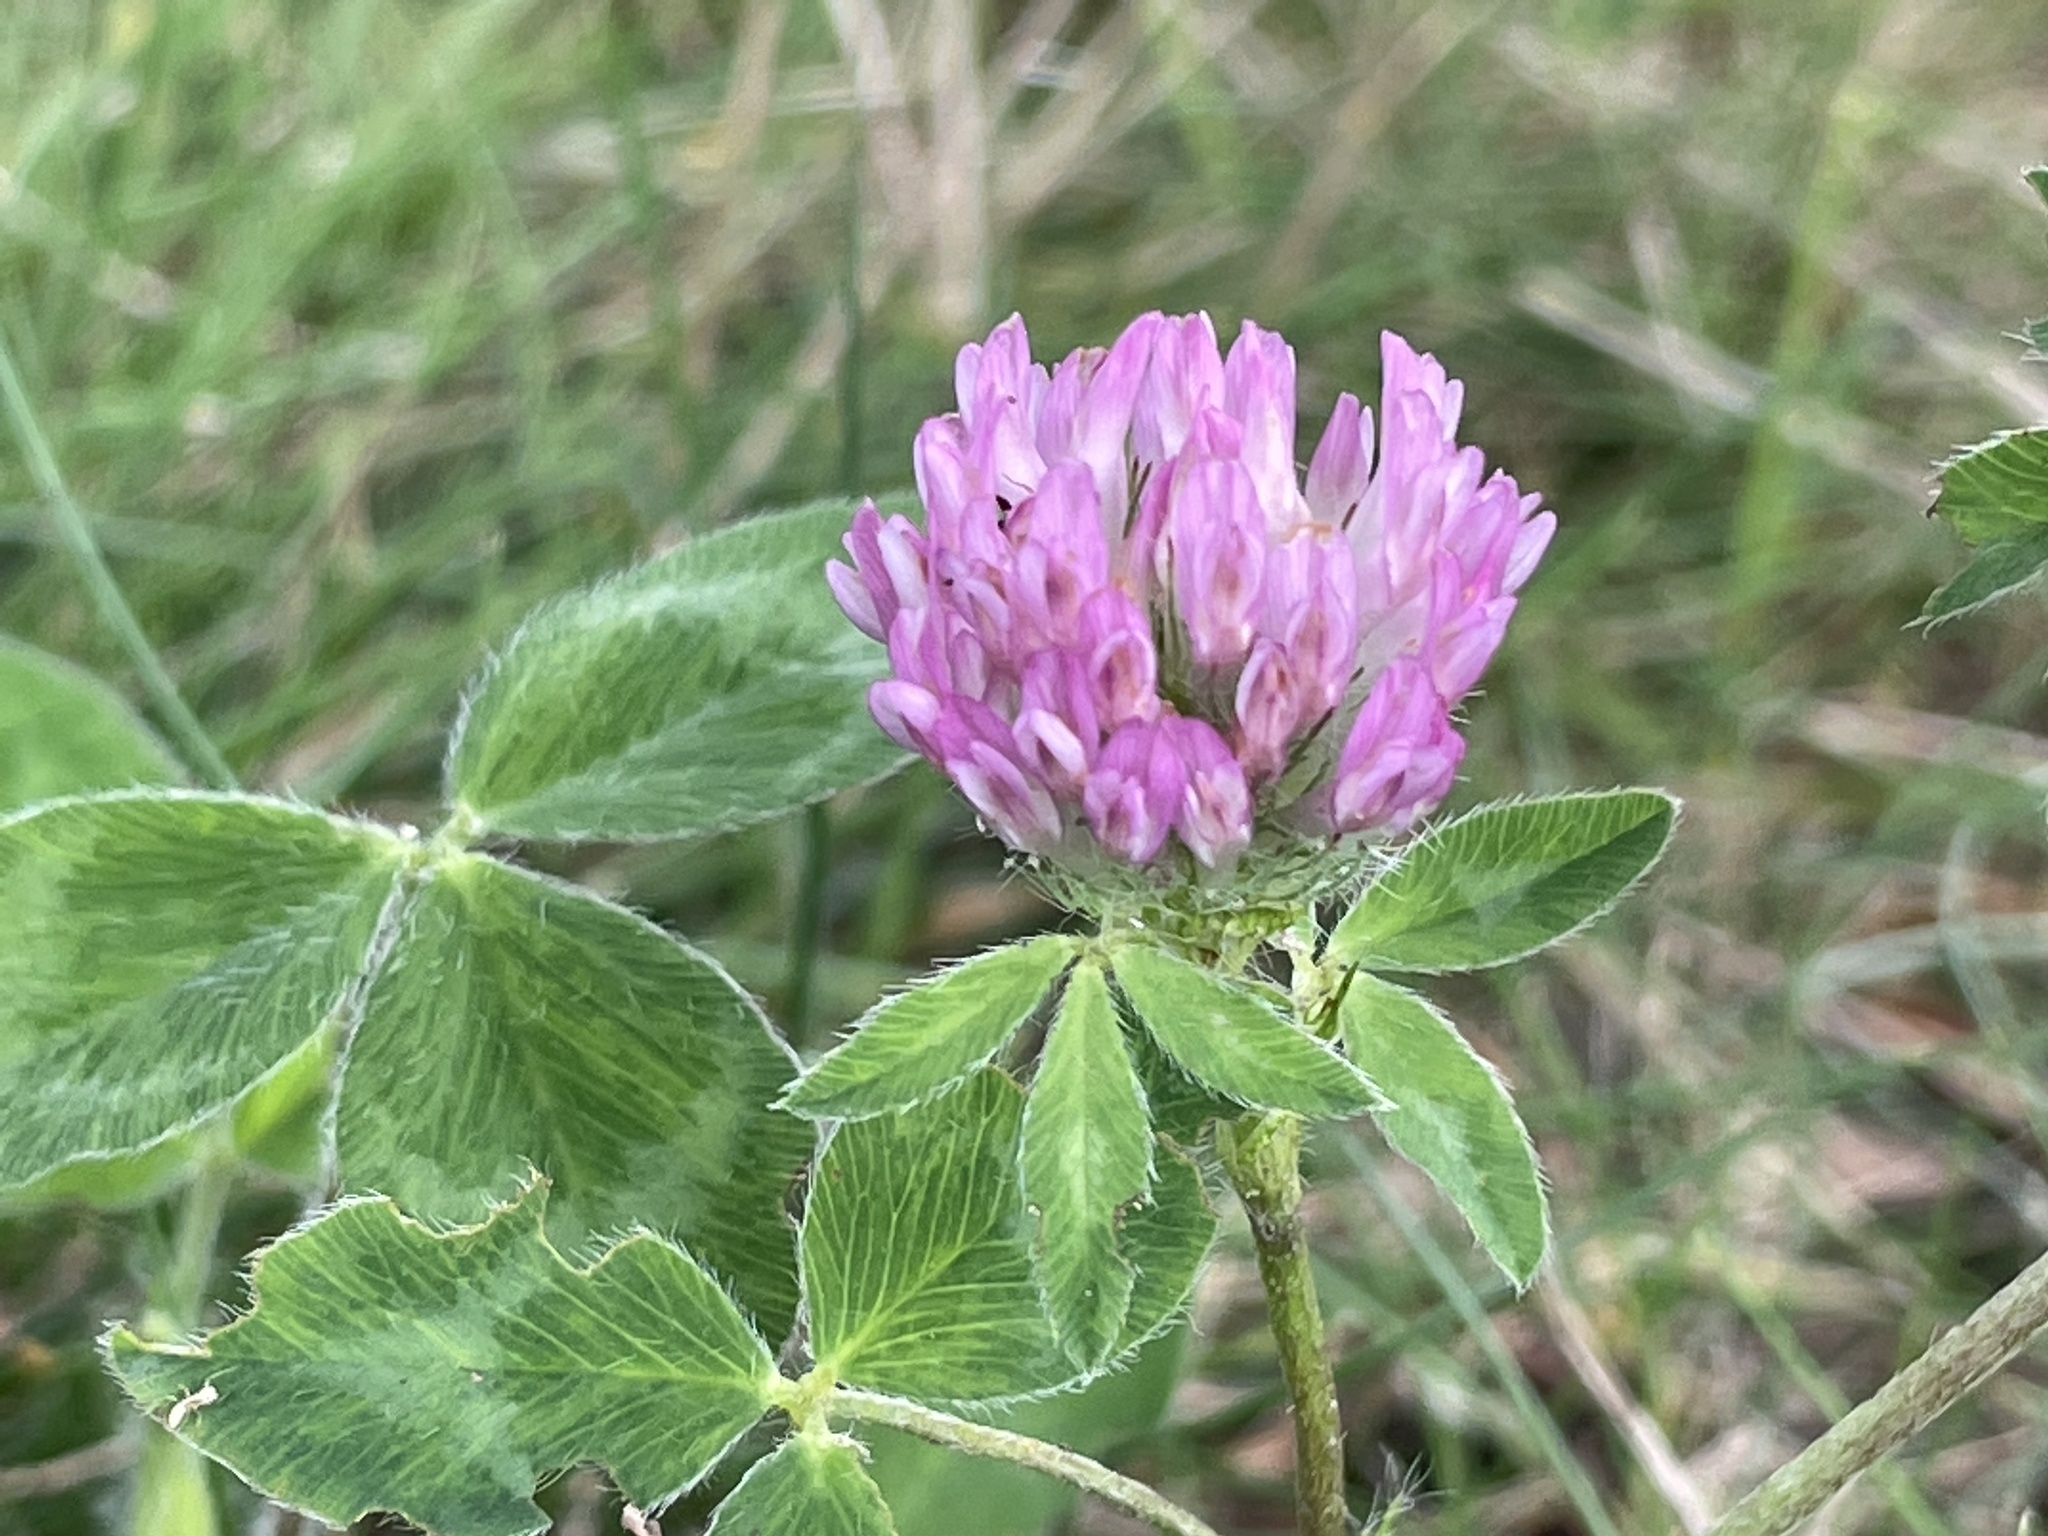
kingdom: Plantae
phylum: Tracheophyta
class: Magnoliopsida
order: Fabales
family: Fabaceae
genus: Trifolium
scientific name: Trifolium pratense
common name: Red clover
